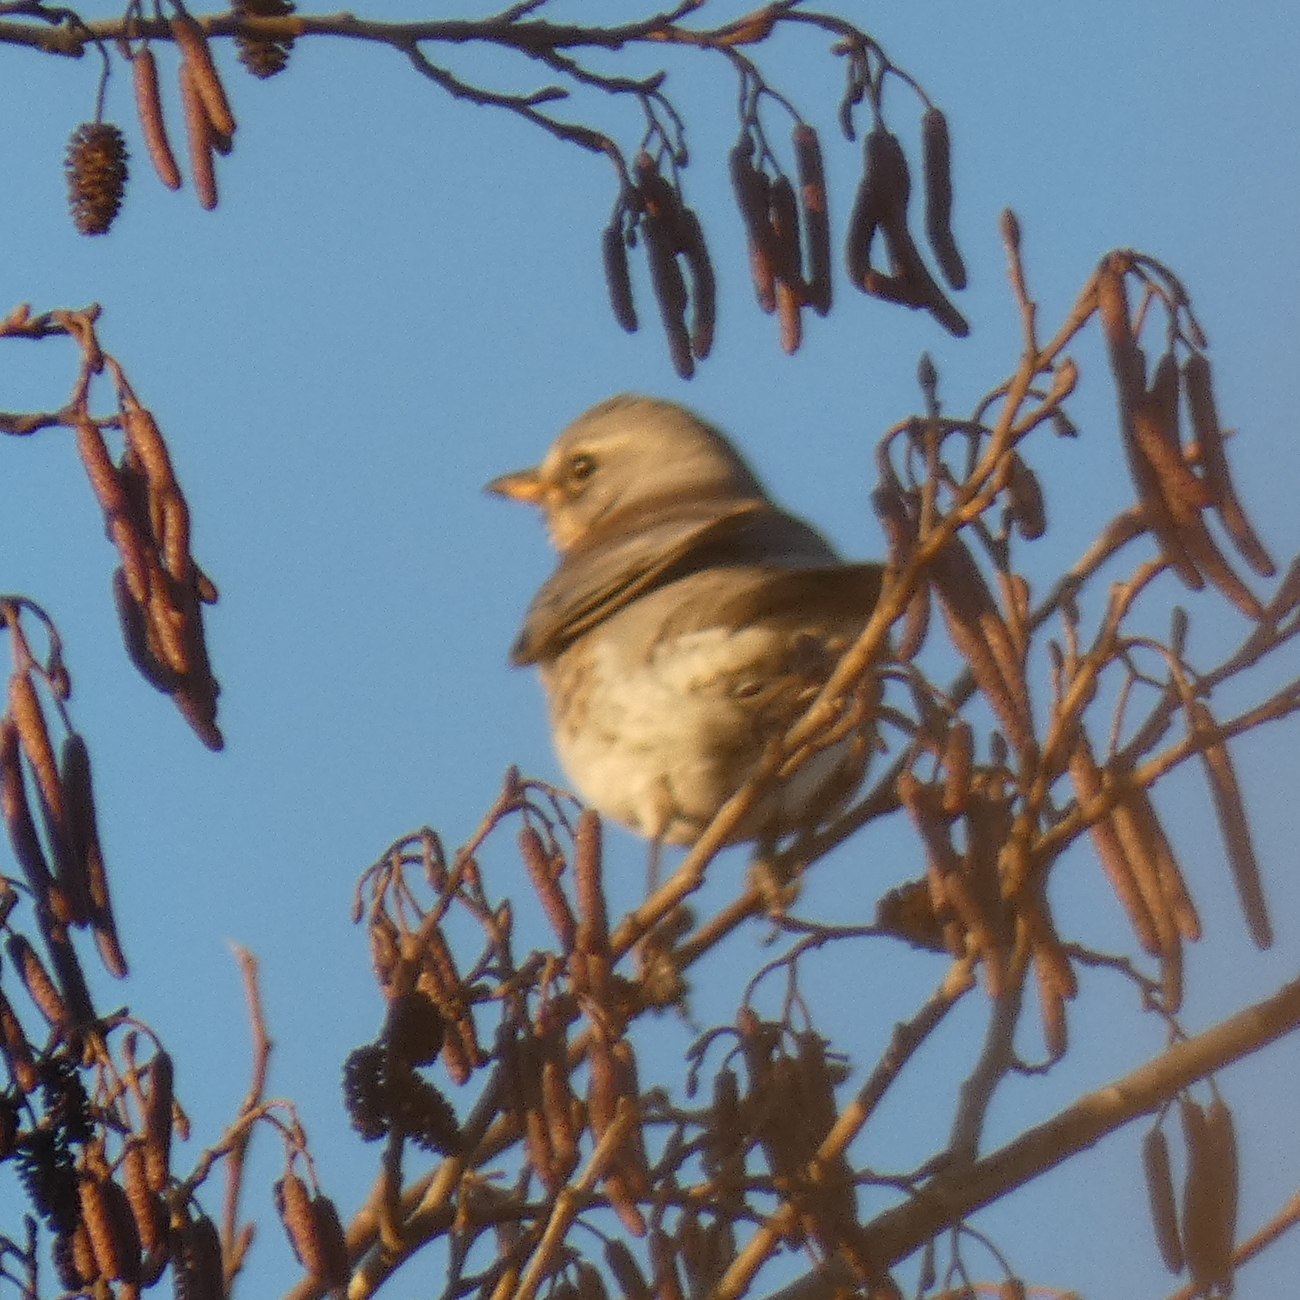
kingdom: Animalia
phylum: Chordata
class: Aves
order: Passeriformes
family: Turdidae
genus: Turdus
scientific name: Turdus pilaris
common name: Fieldfare
